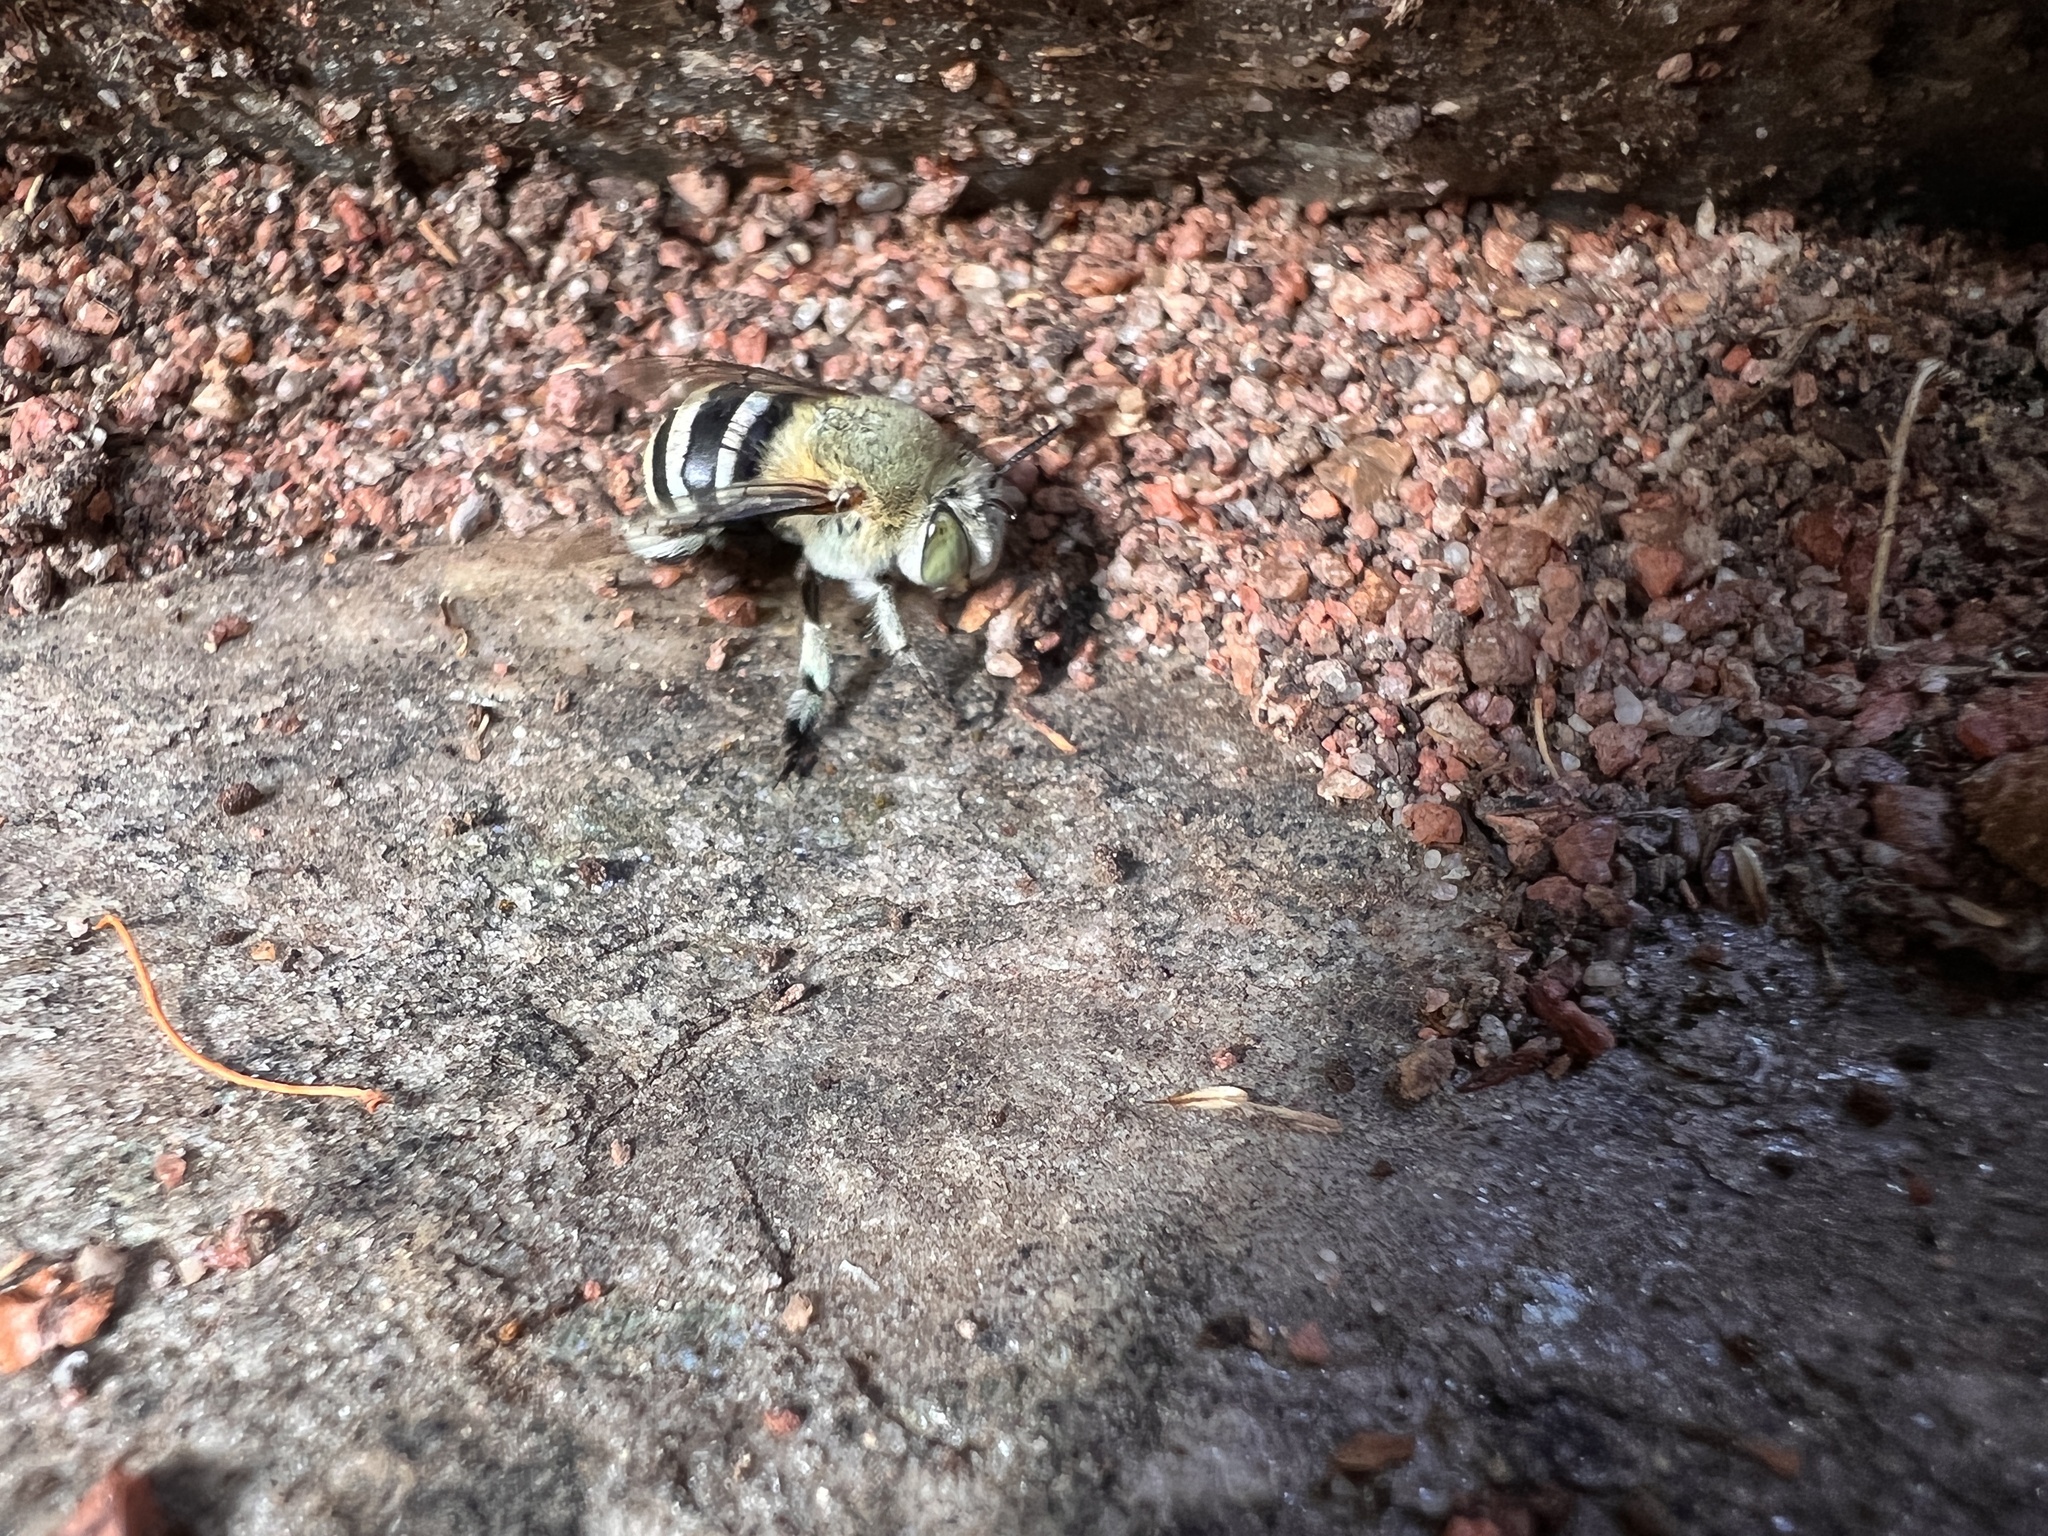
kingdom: Animalia
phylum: Arthropoda
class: Insecta
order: Hymenoptera
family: Apidae
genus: Amegilla
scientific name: Amegilla chlorocyanea
